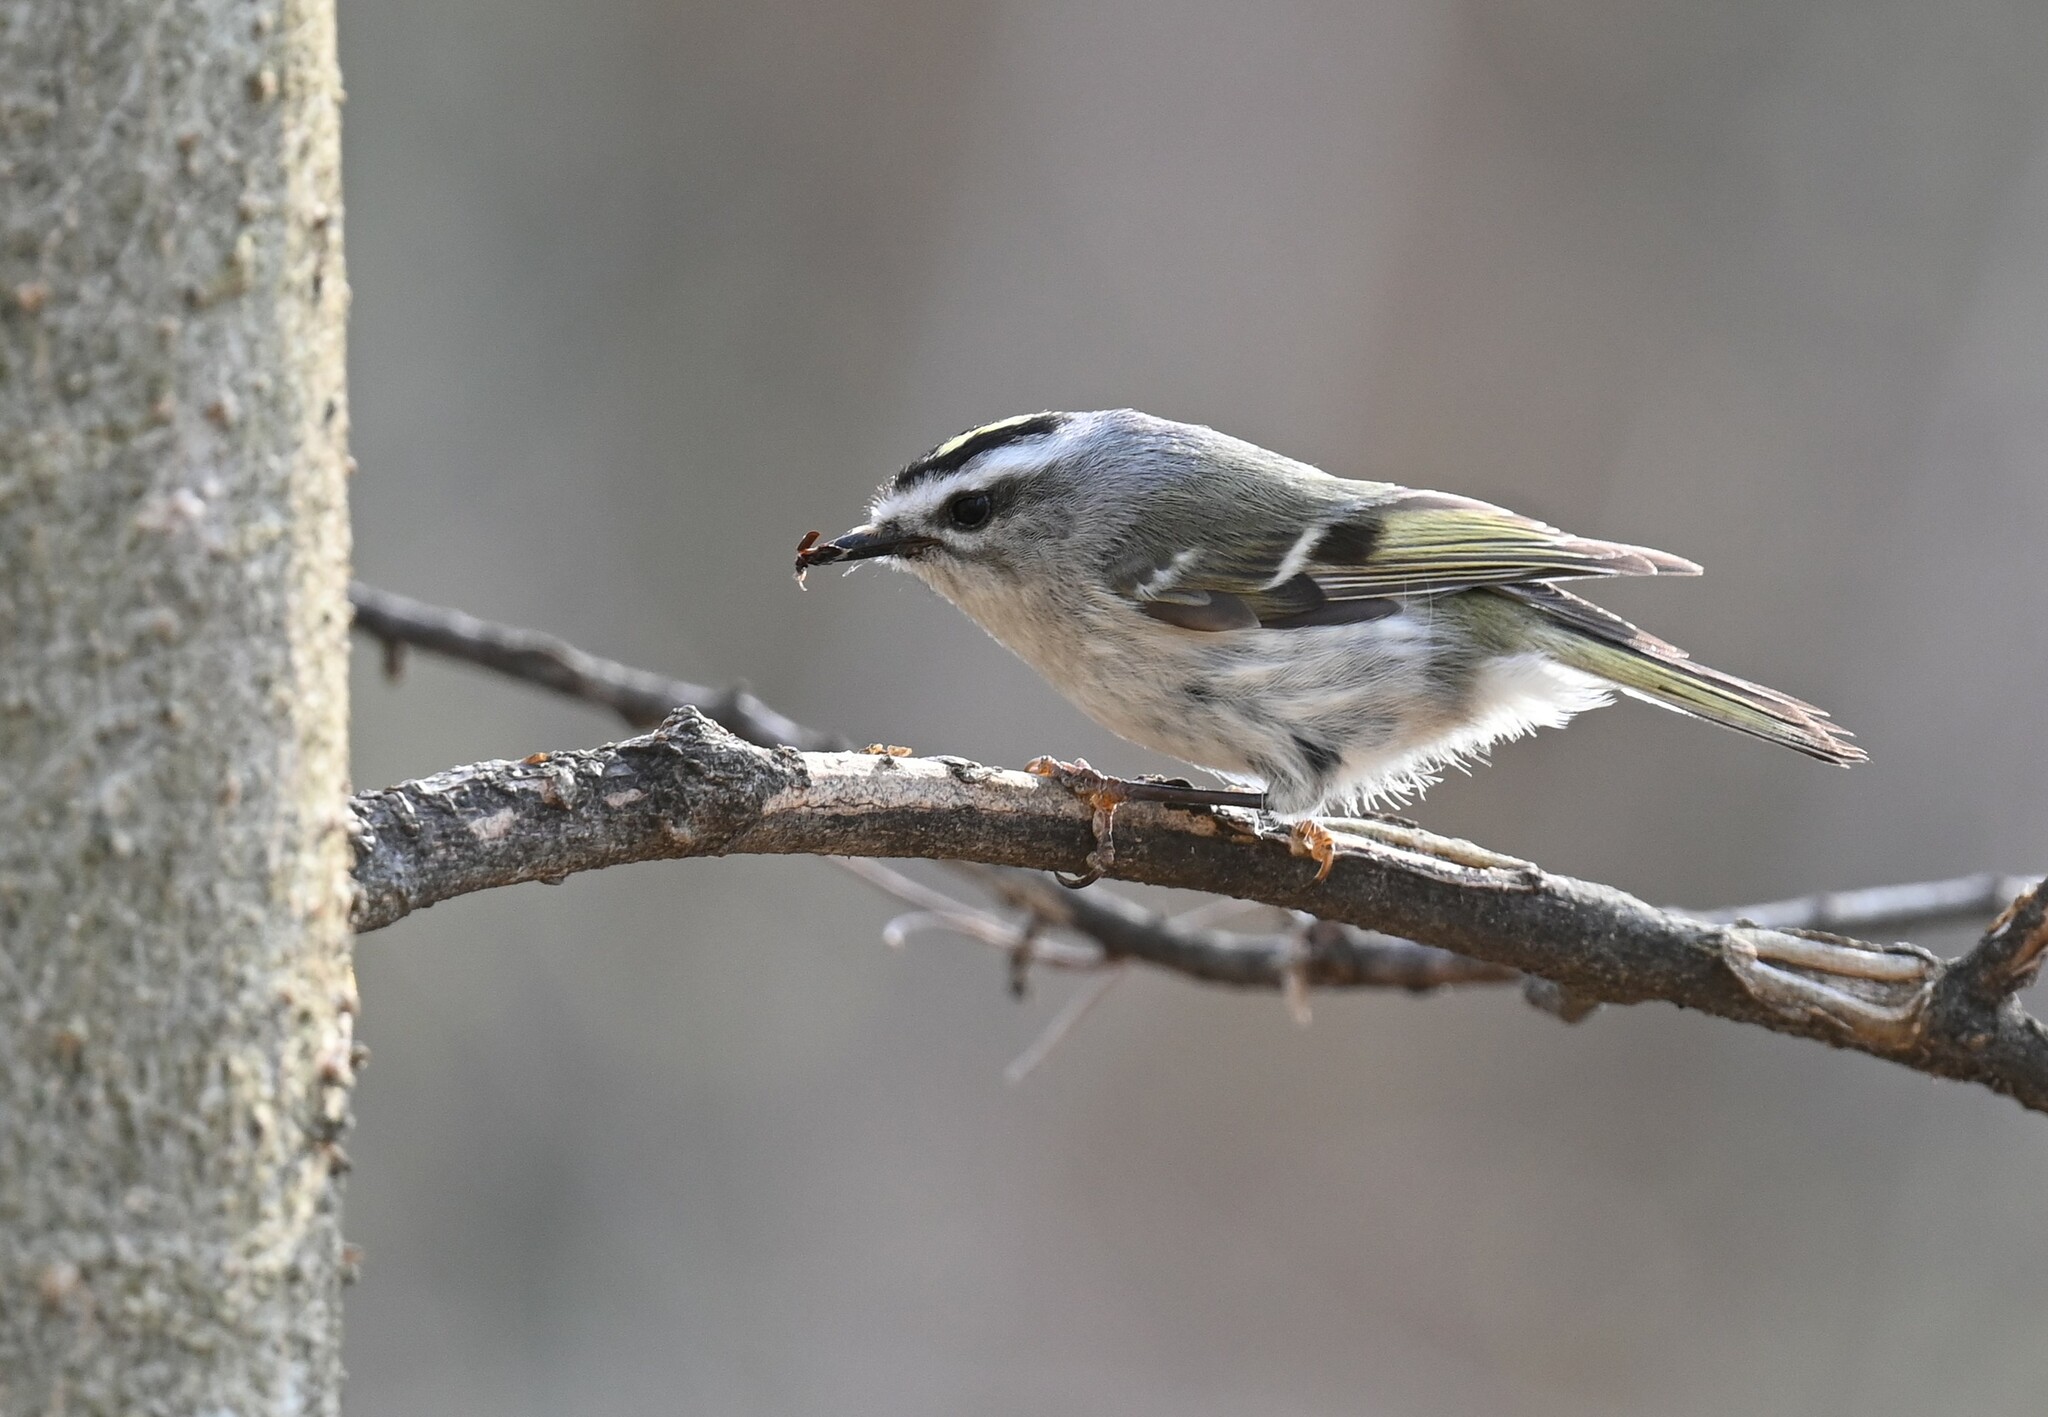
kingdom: Animalia
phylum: Chordata
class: Aves
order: Passeriformes
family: Regulidae
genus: Regulus
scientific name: Regulus satrapa
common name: Golden-crowned kinglet
